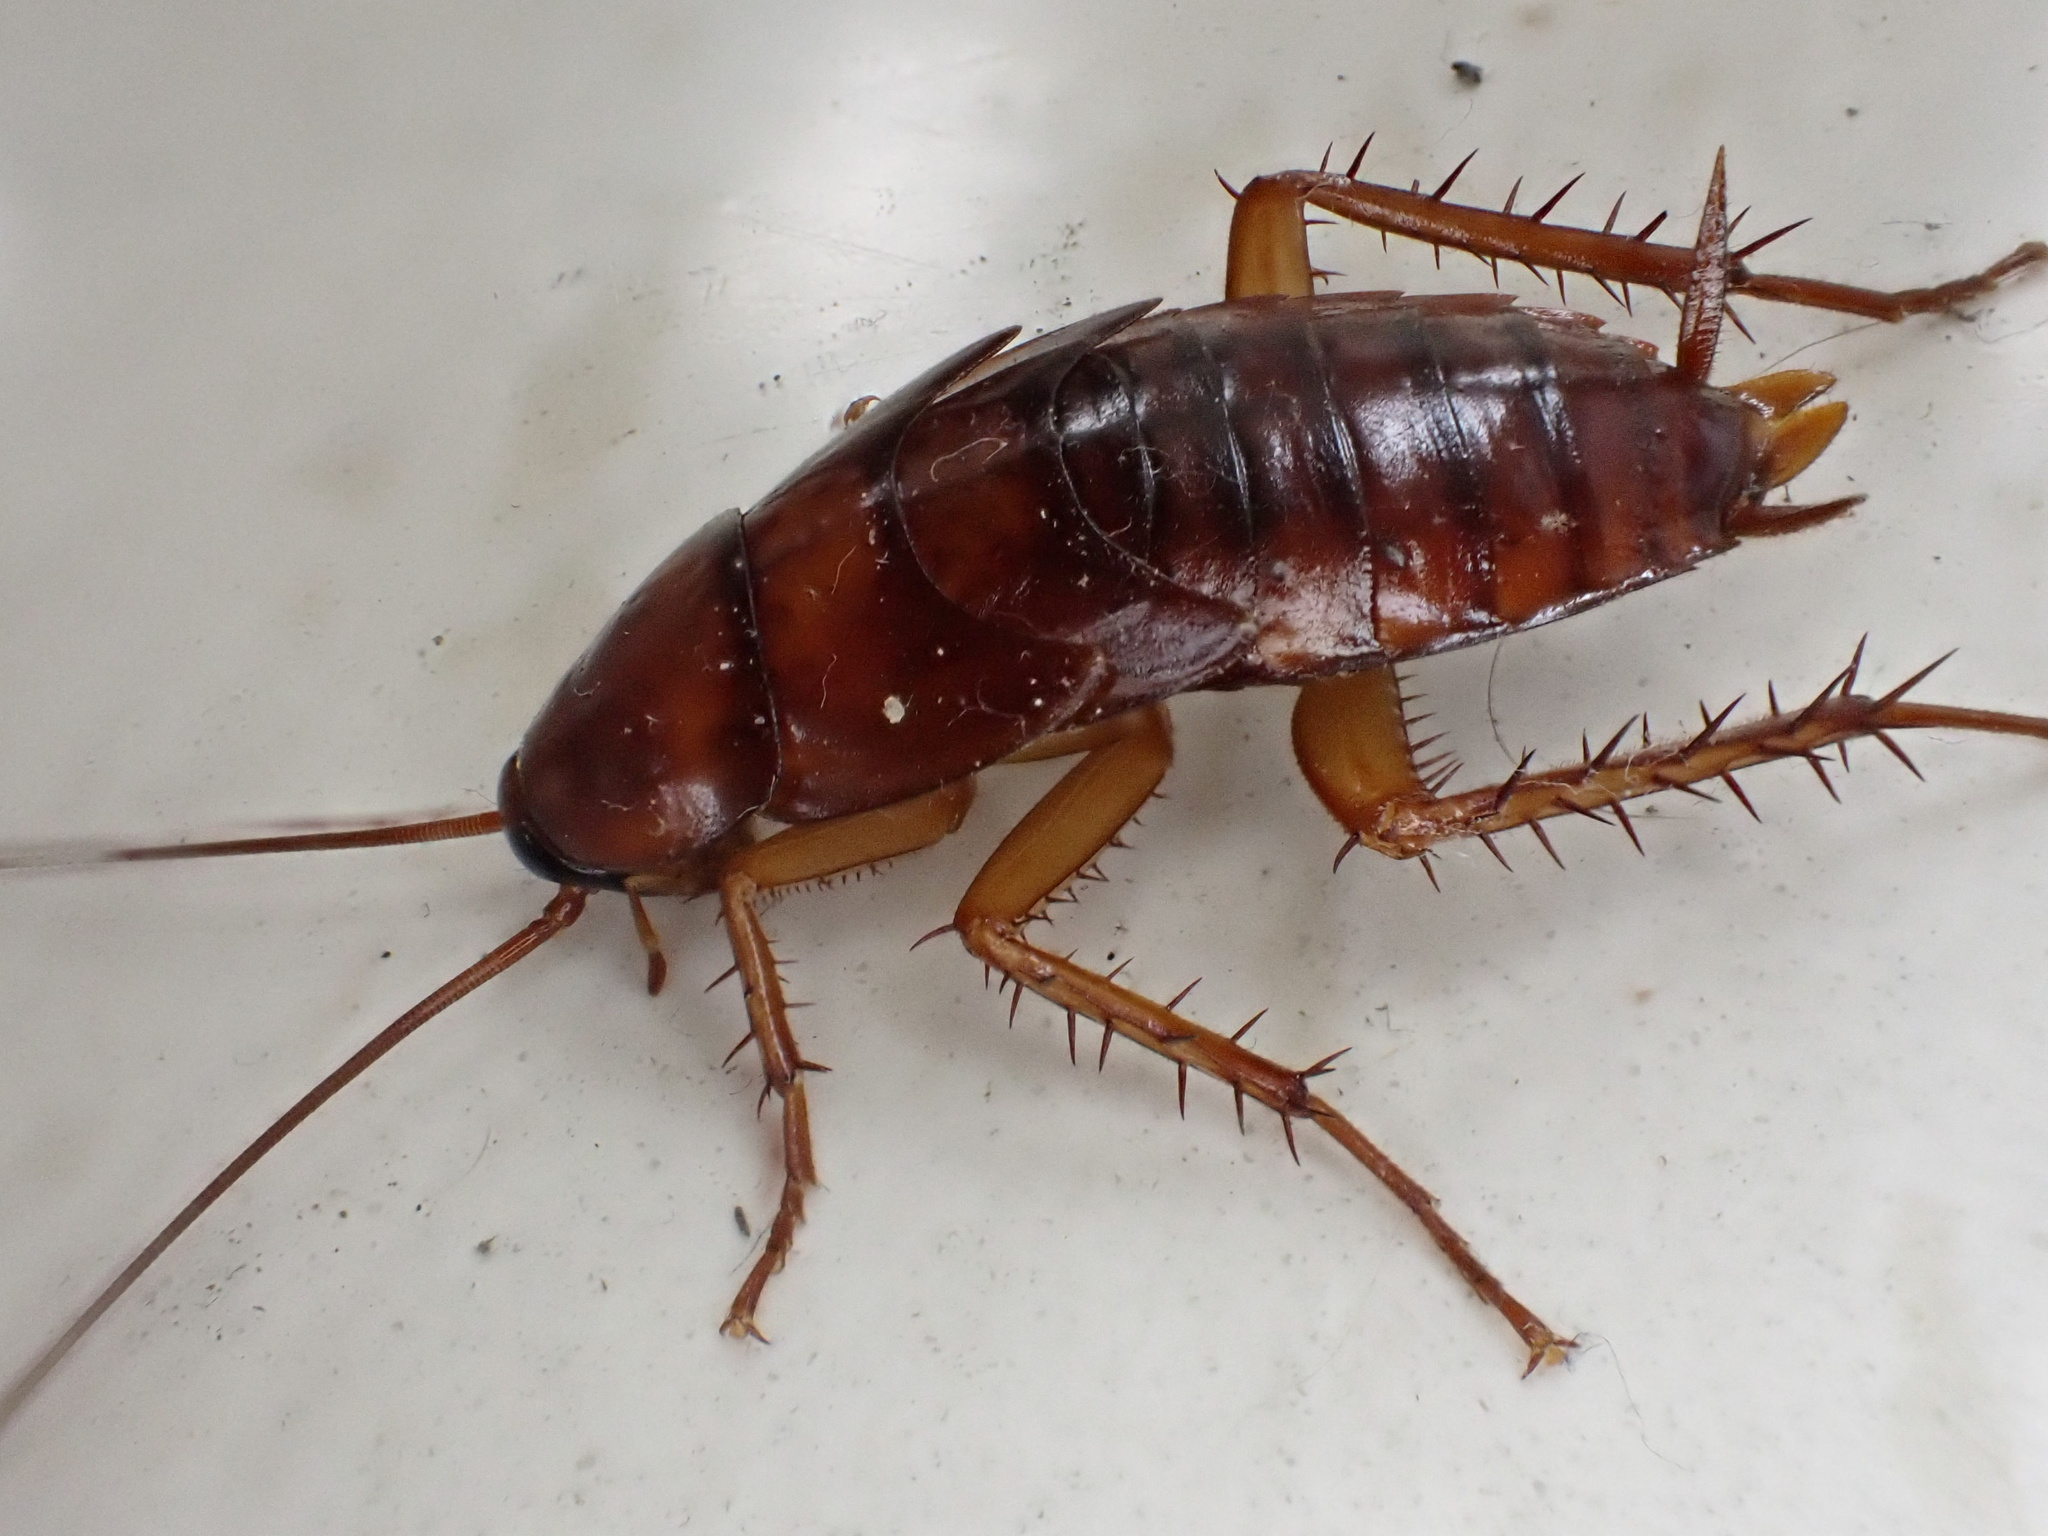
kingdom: Animalia
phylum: Arthropoda
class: Insecta
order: Blattodea
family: Blattidae
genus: Periplaneta
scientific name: Periplaneta americana
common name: American cockroach
